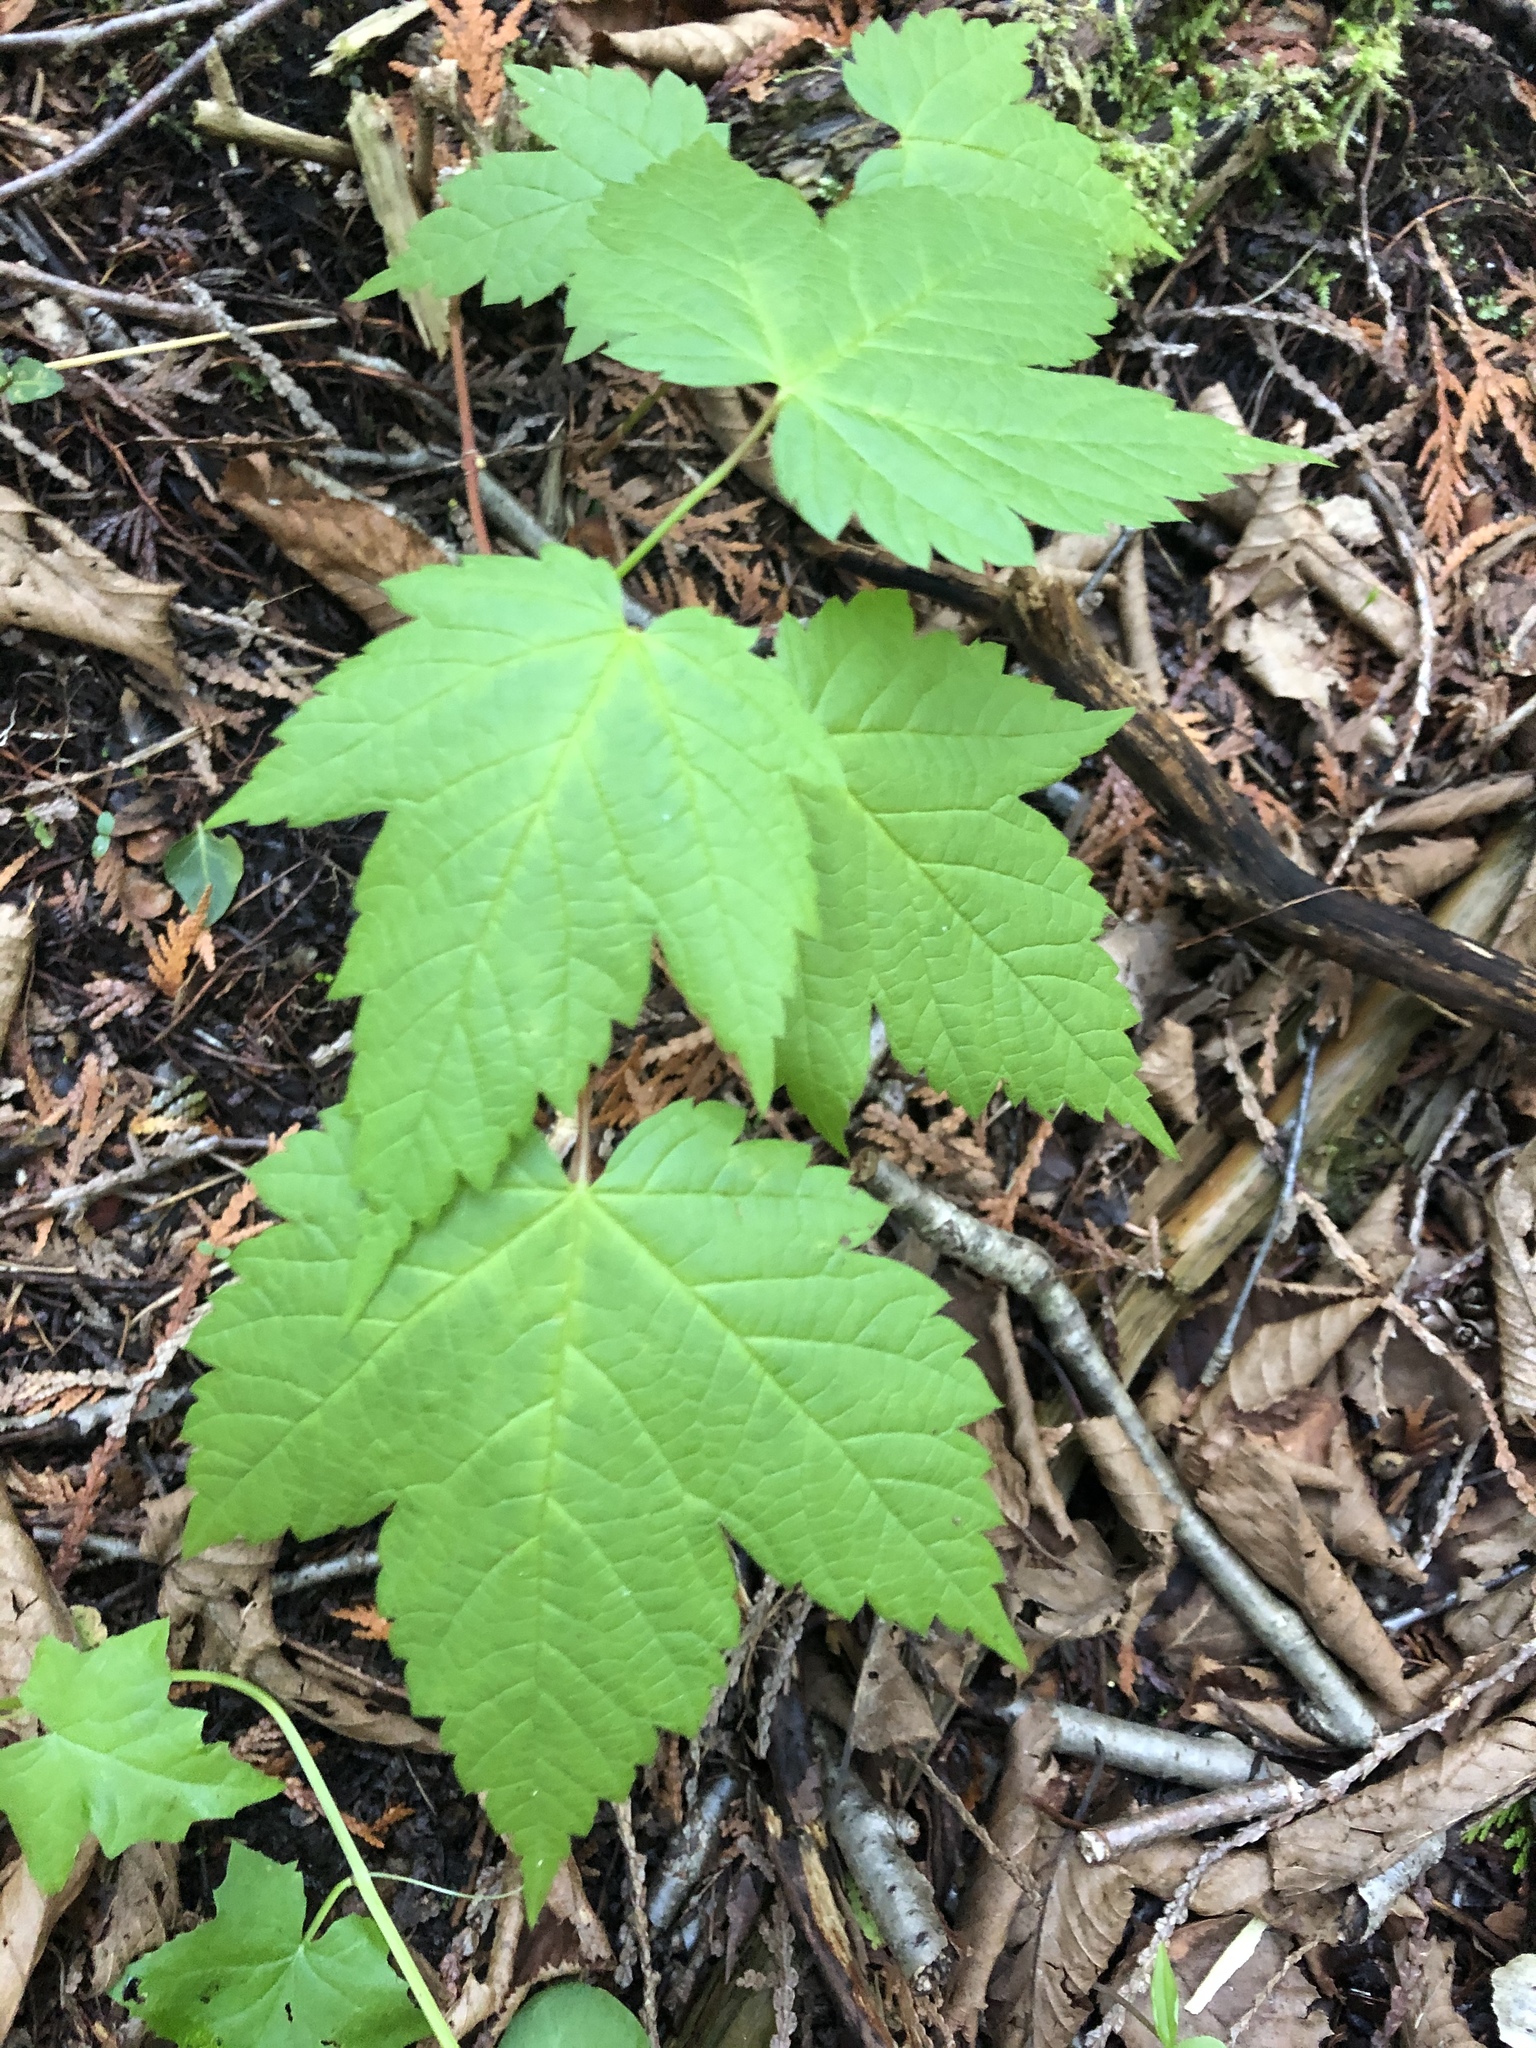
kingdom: Plantae
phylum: Tracheophyta
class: Magnoliopsida
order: Sapindales
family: Sapindaceae
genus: Acer
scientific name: Acer spicatum
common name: Mountain maple
